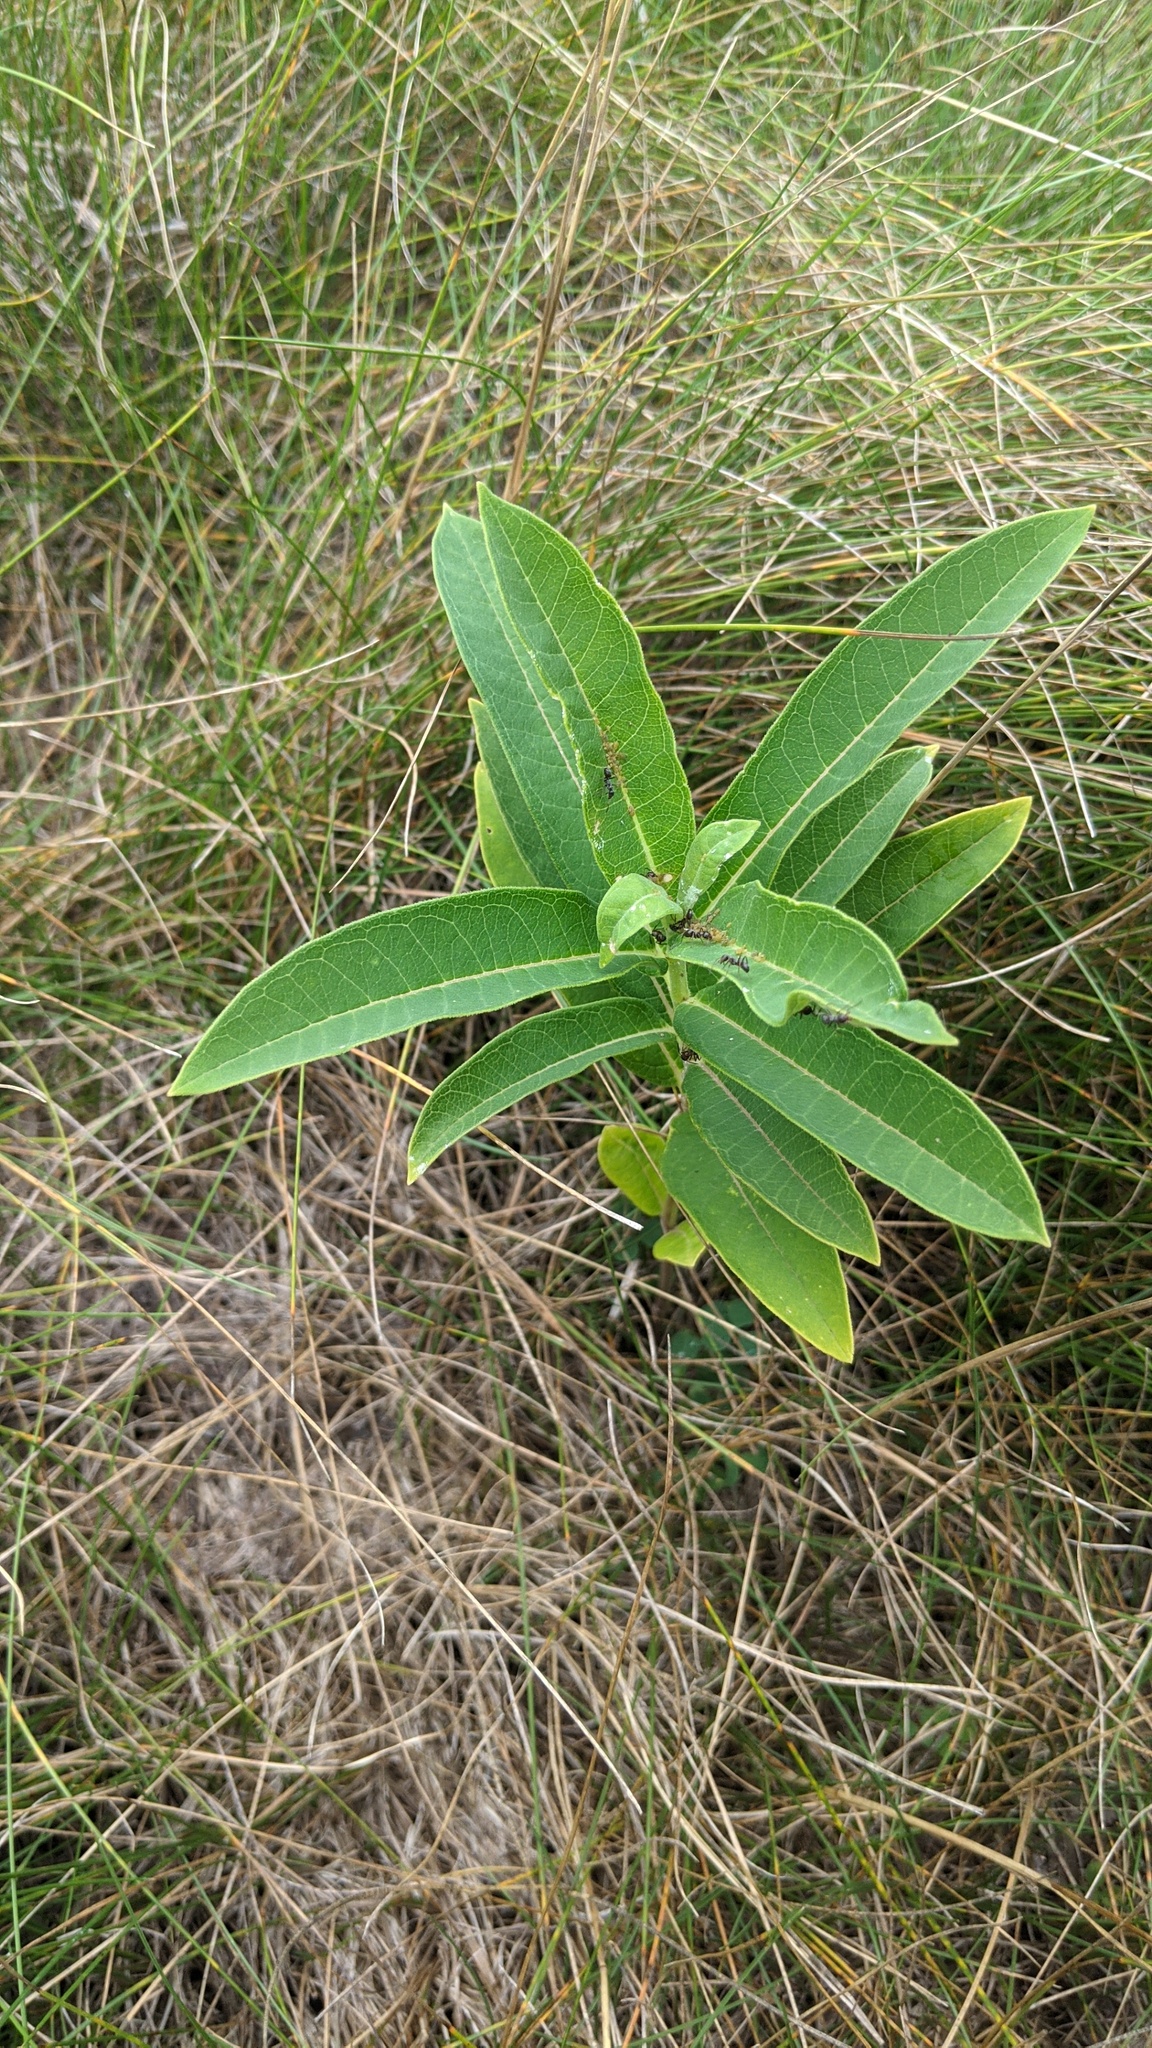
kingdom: Plantae
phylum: Tracheophyta
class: Magnoliopsida
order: Gentianales
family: Apocynaceae
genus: Asclepias
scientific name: Asclepias syriaca
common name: Common milkweed
